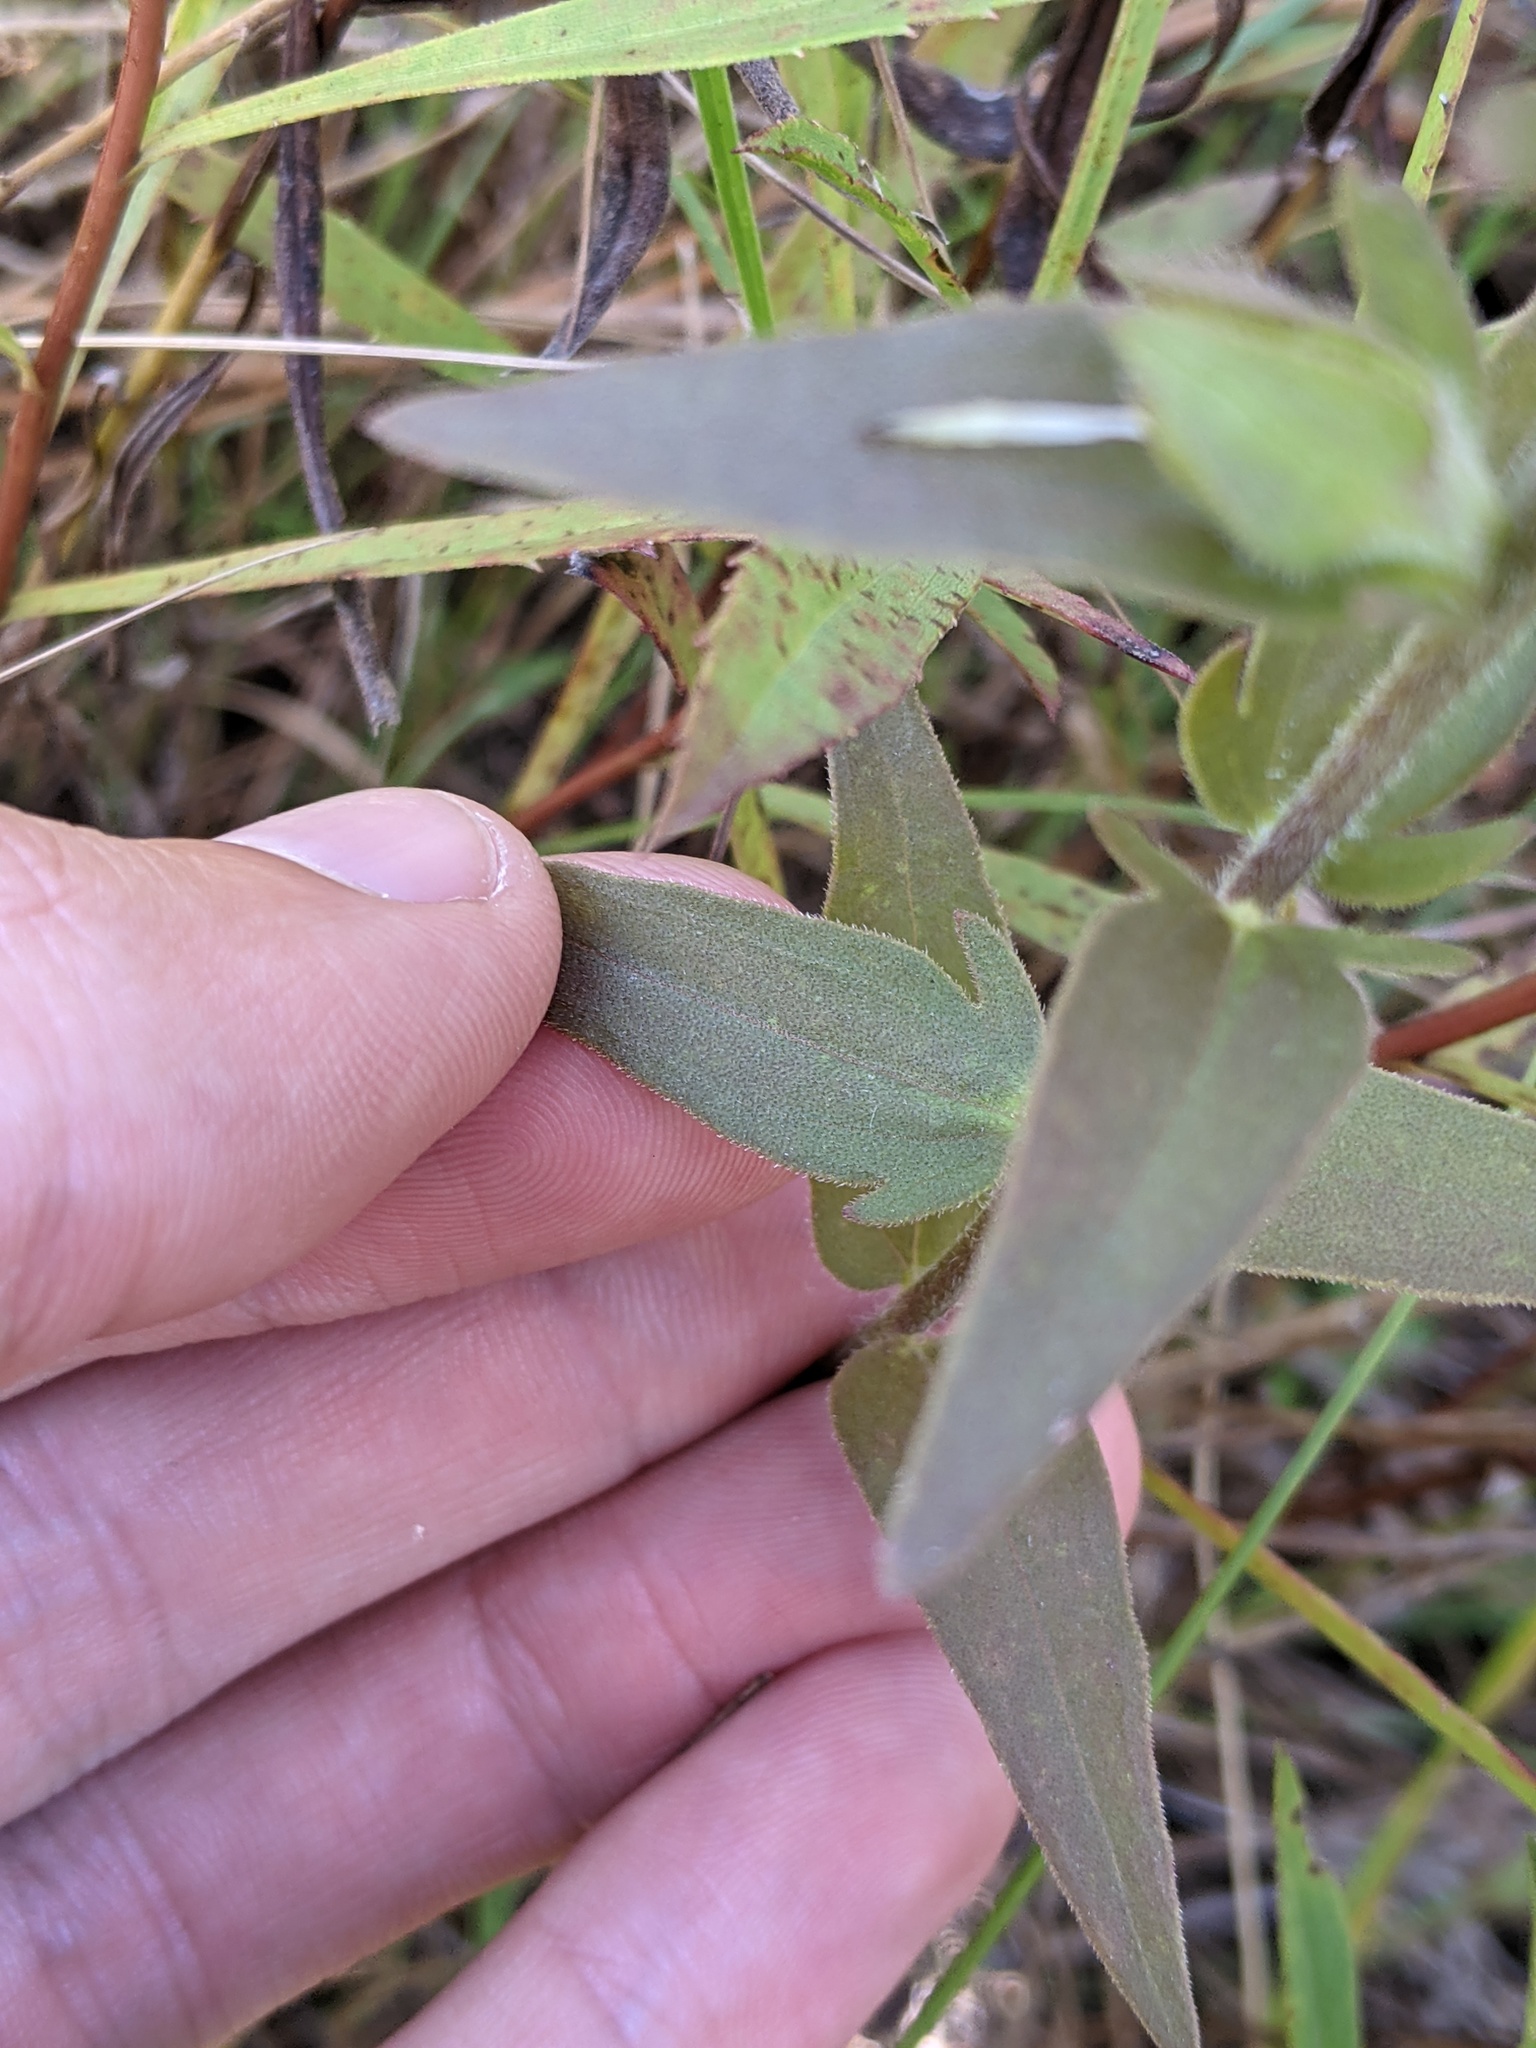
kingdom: Plantae
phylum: Tracheophyta
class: Magnoliopsida
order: Lamiales
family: Orobanchaceae
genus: Agalinis
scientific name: Agalinis auriculata
